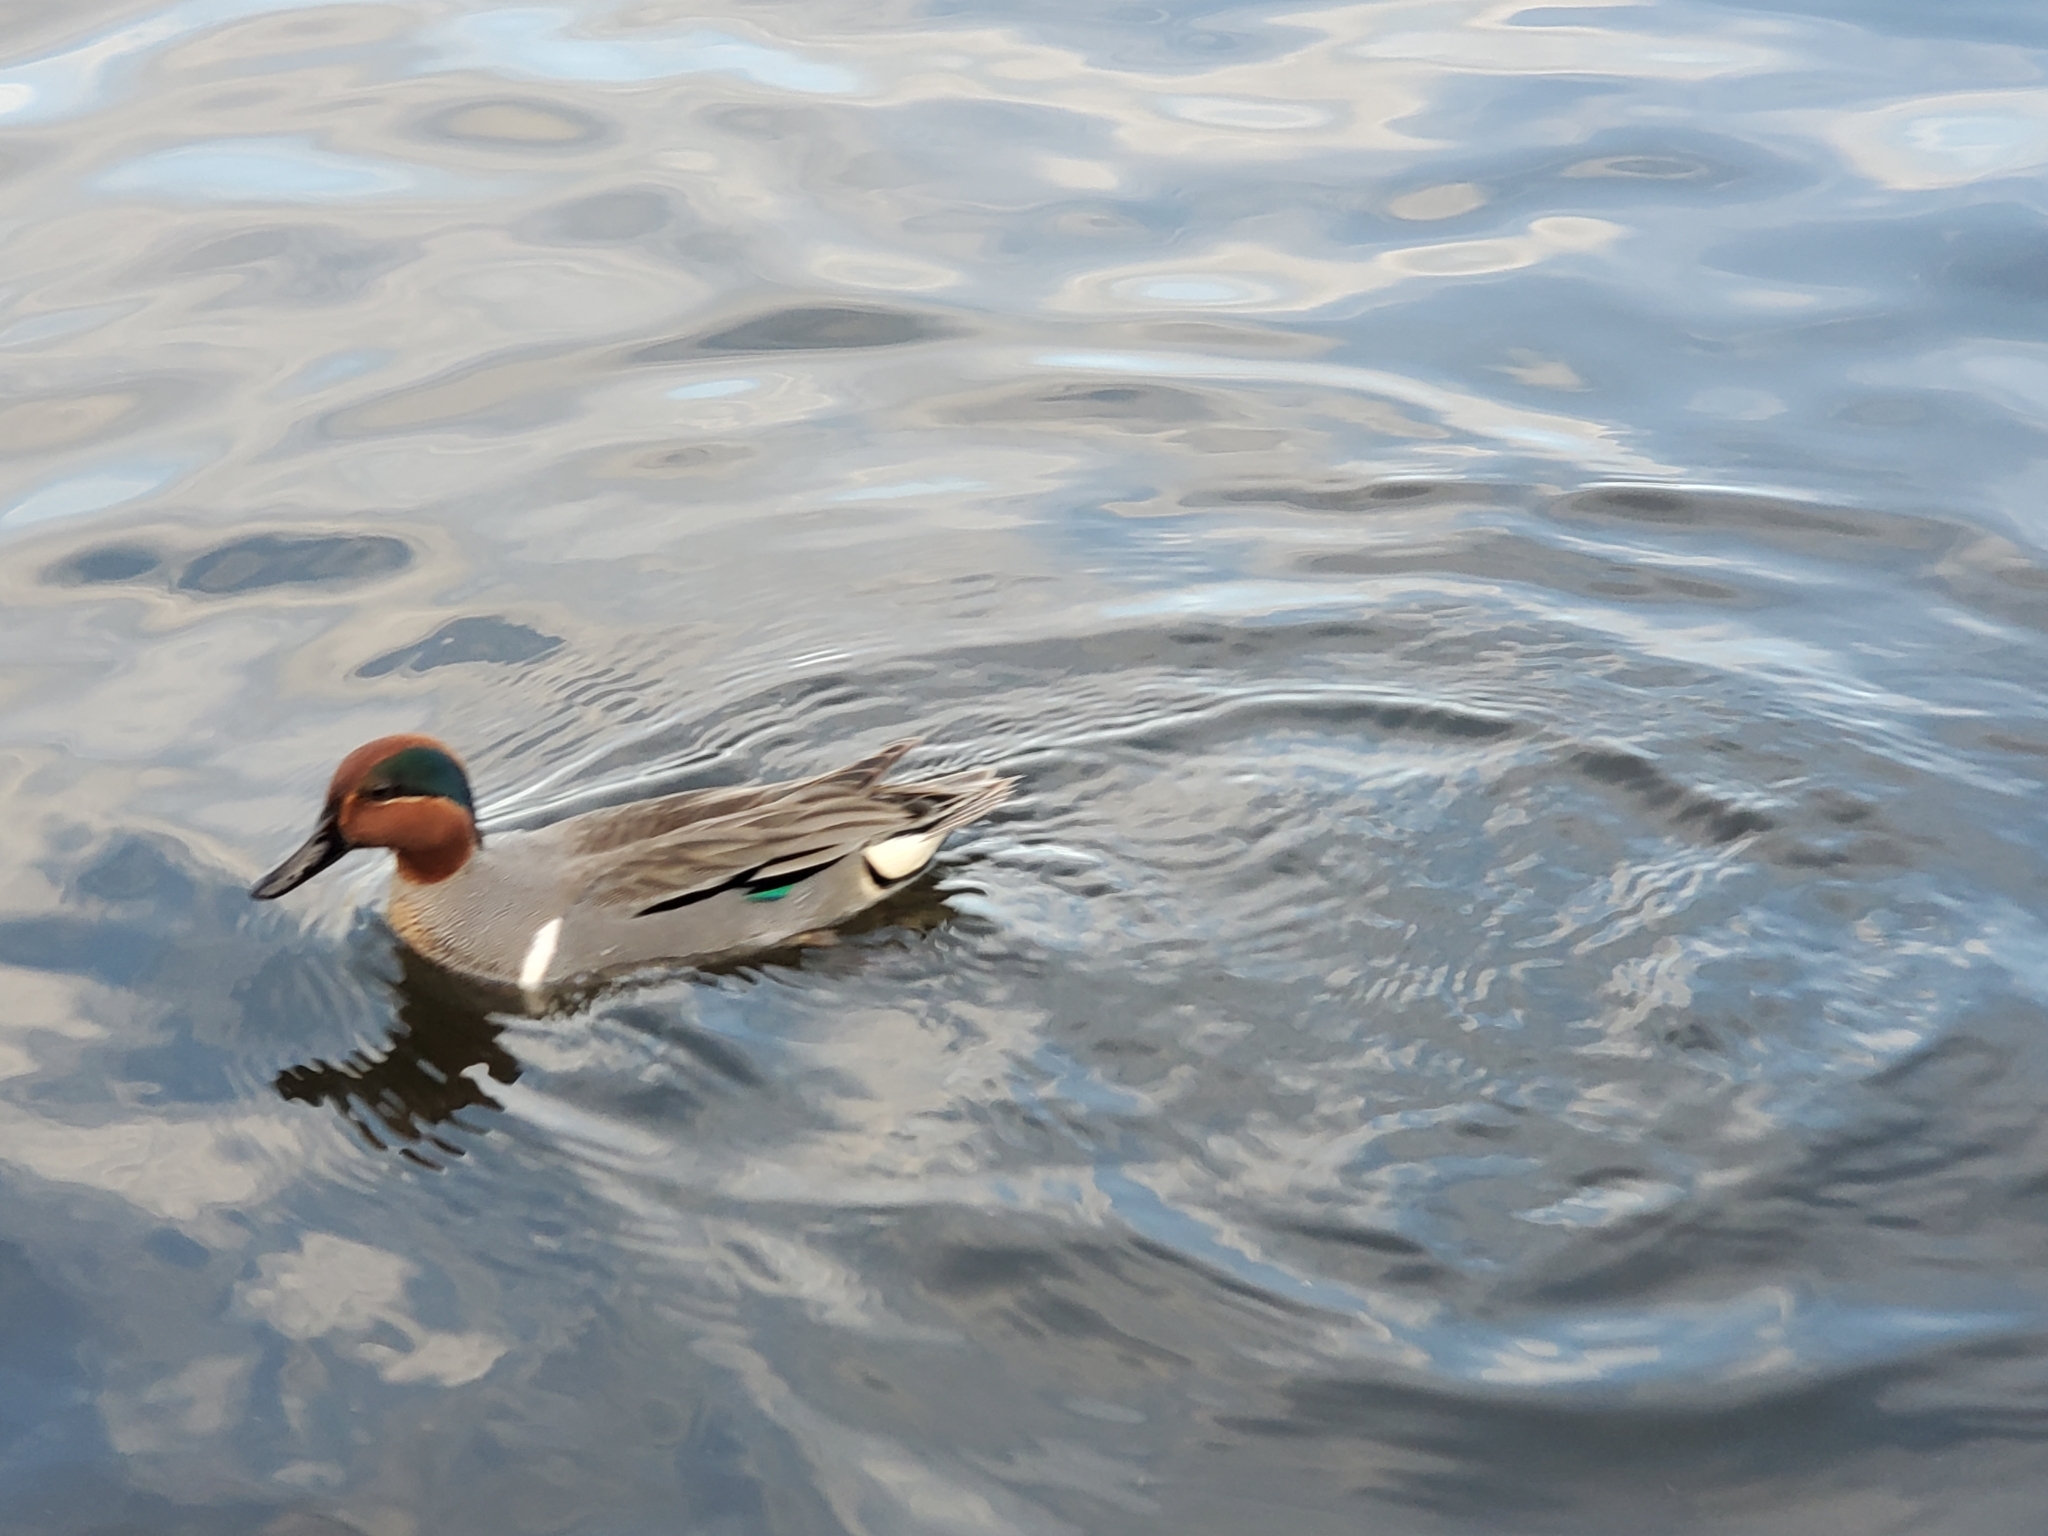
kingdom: Animalia
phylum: Chordata
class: Aves
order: Anseriformes
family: Anatidae
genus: Anas
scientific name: Anas crecca
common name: Eurasian teal
